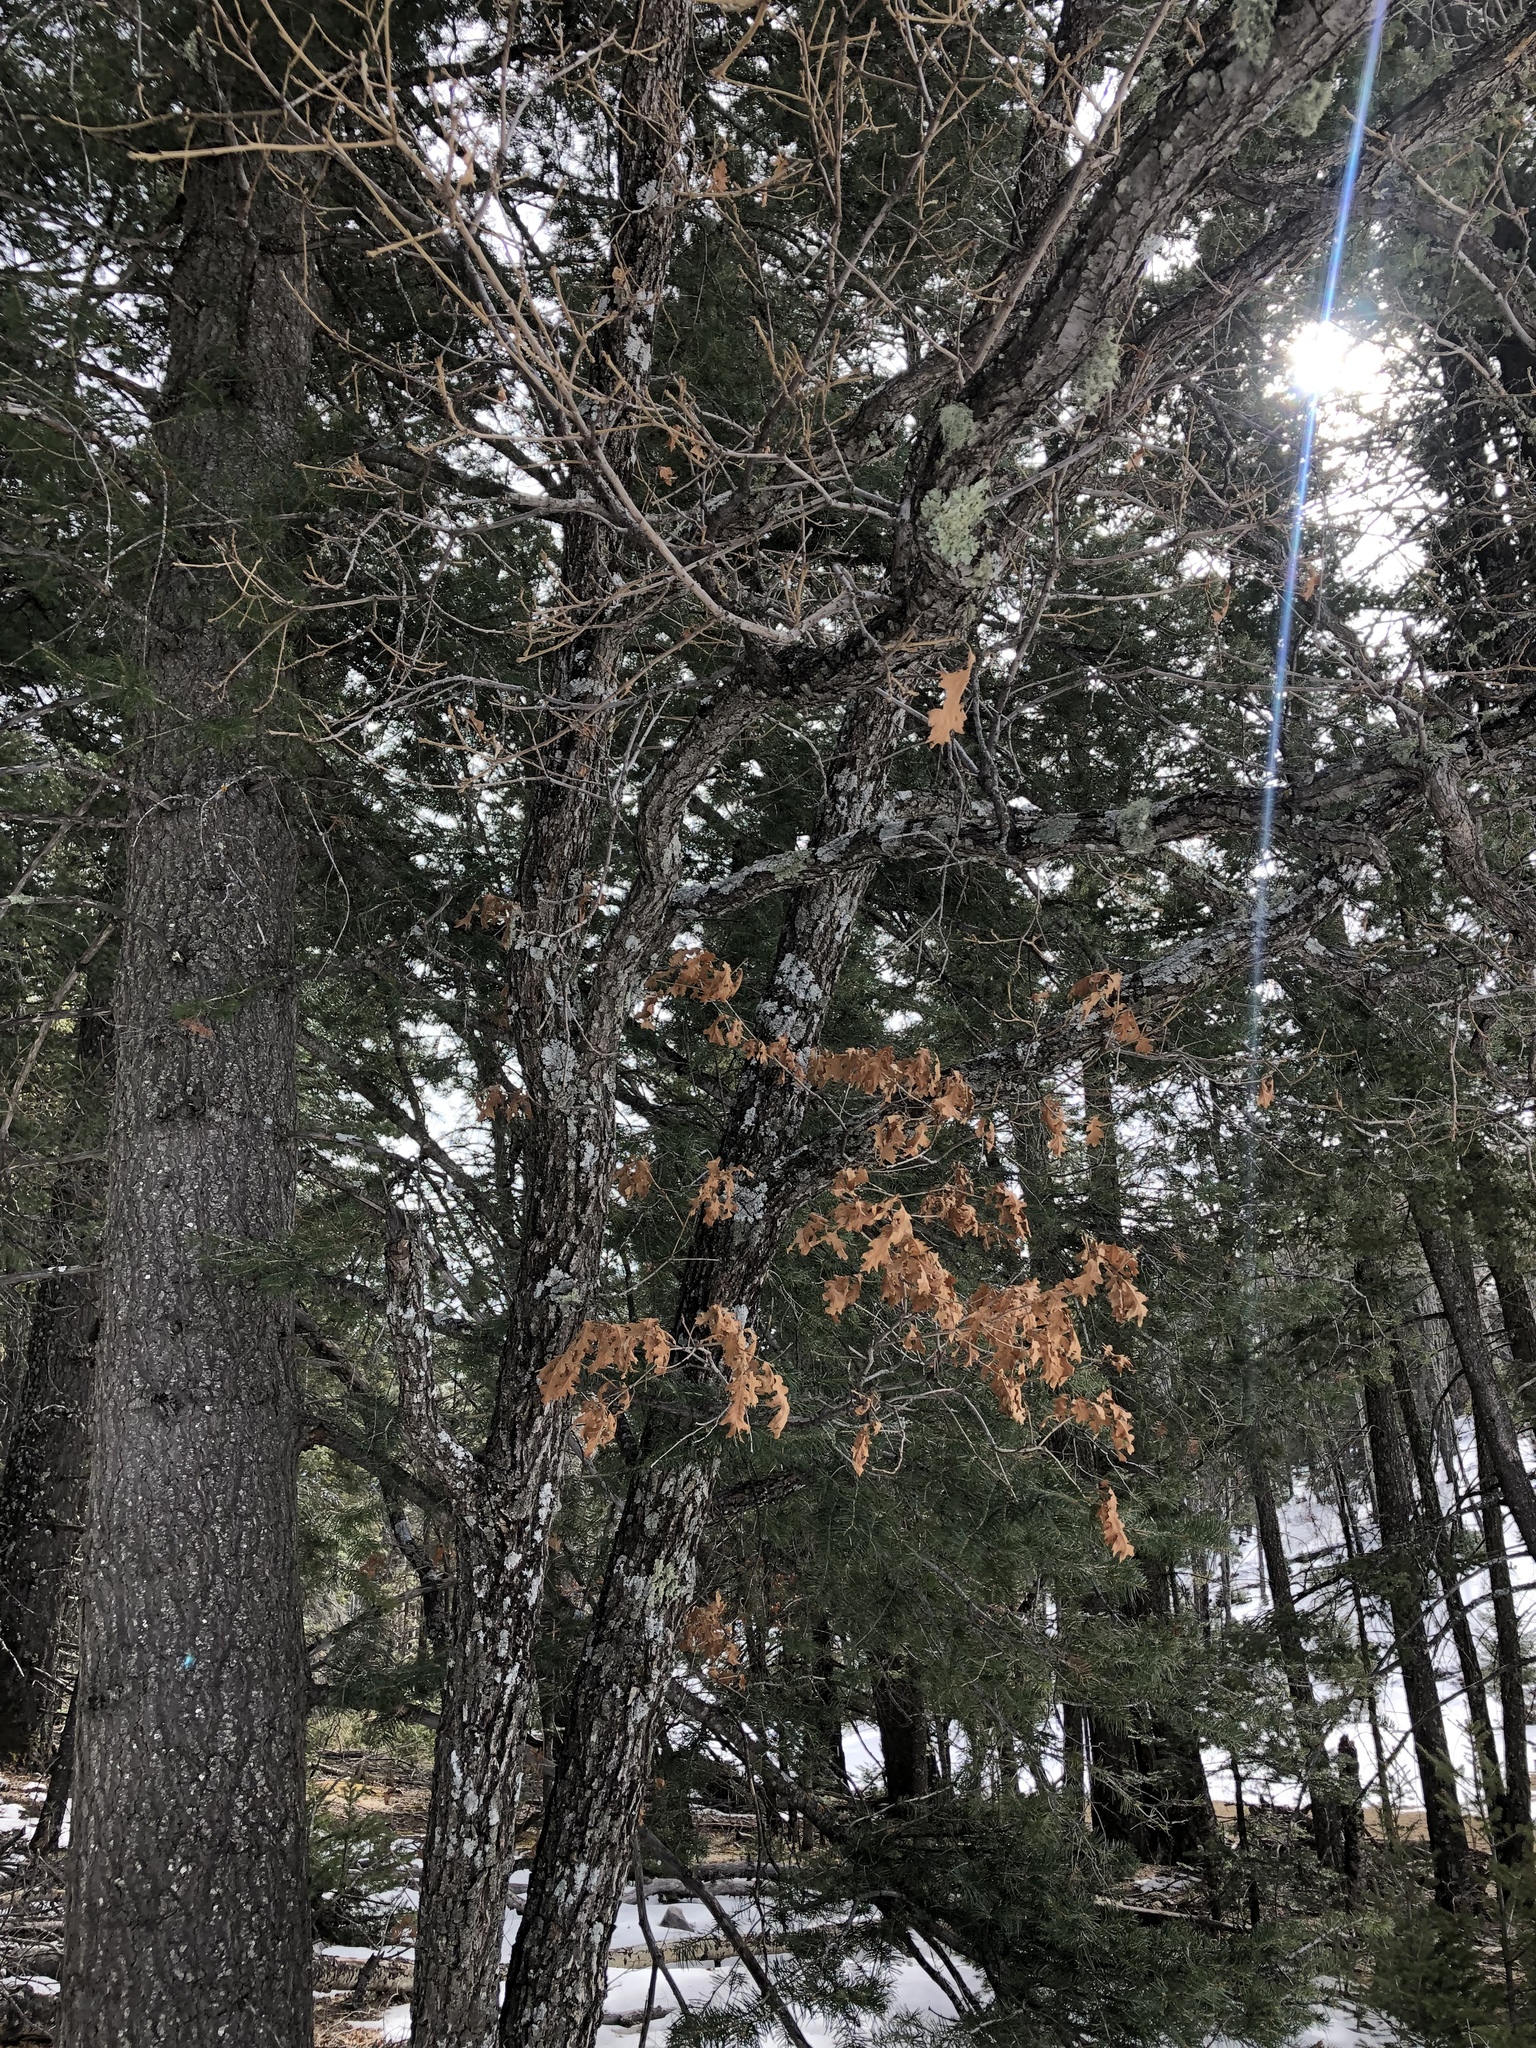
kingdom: Plantae
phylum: Tracheophyta
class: Magnoliopsida
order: Fagales
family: Fagaceae
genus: Quercus
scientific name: Quercus gambelii
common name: Gambel oak
